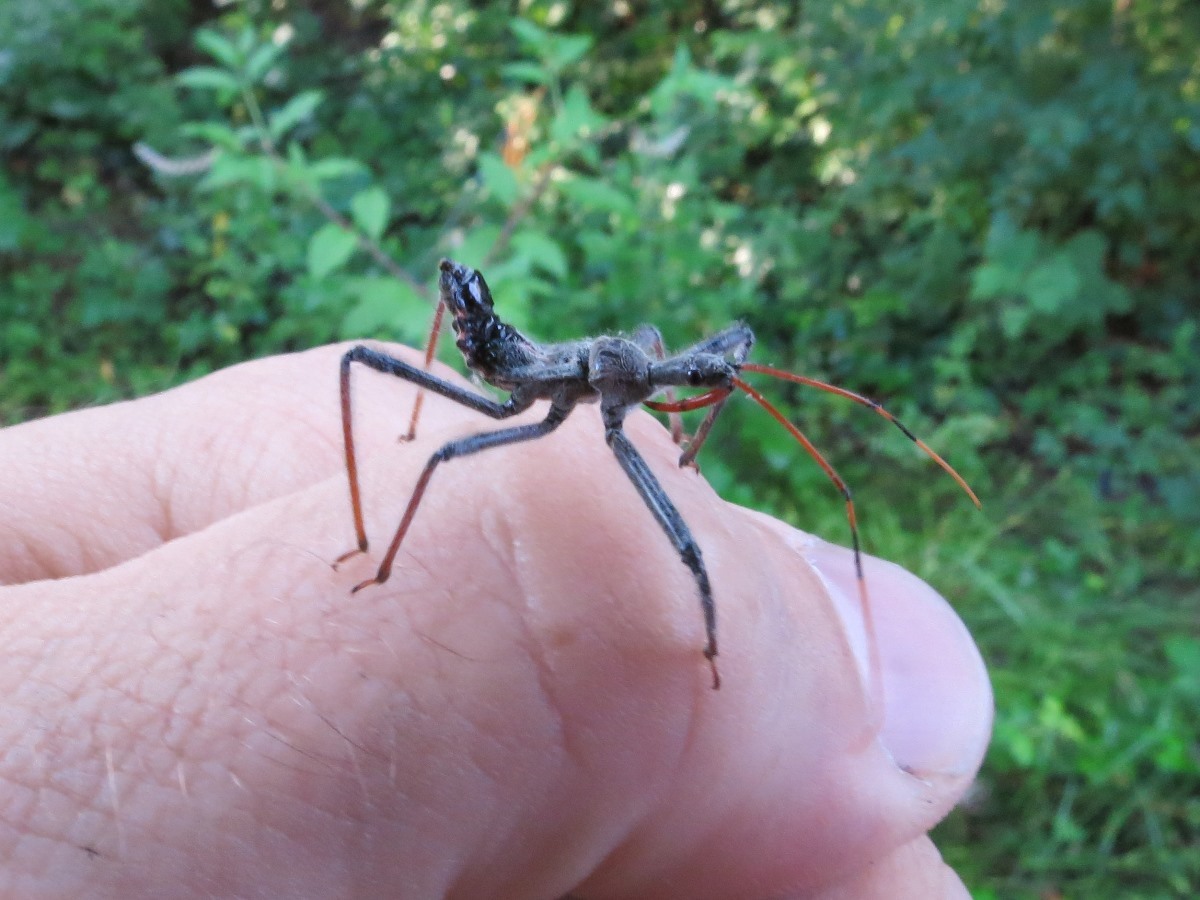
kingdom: Animalia
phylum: Arthropoda
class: Insecta
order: Hemiptera
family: Reduviidae
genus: Arilus
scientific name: Arilus cristatus
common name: North american wheel bug
